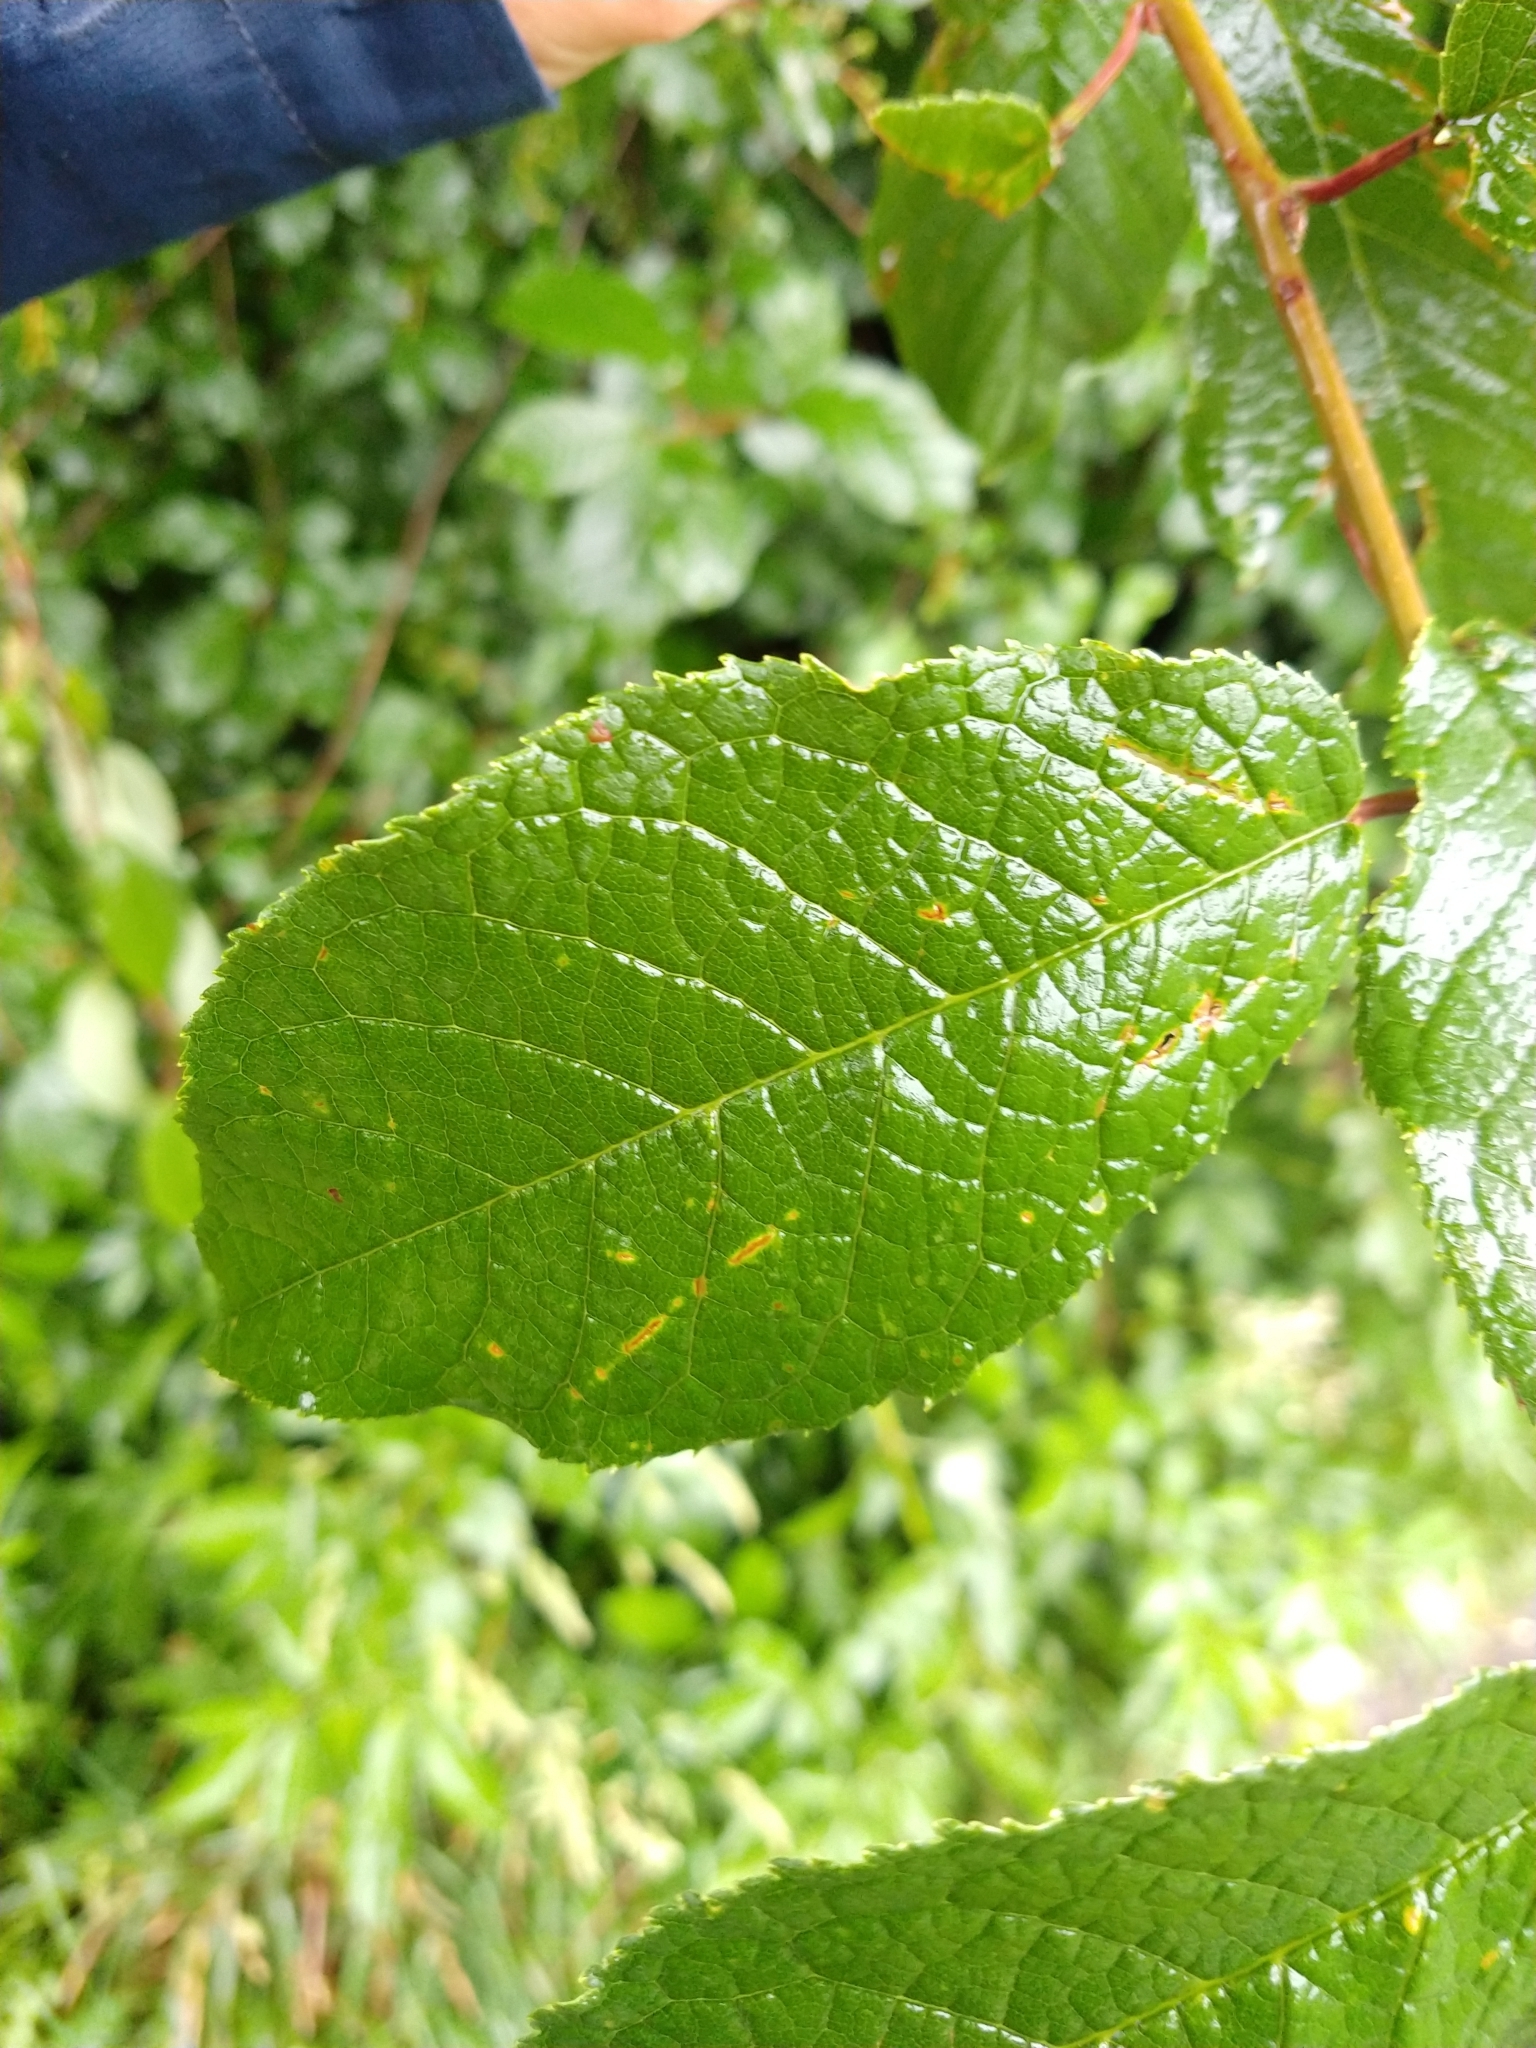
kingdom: Plantae
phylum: Tracheophyta
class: Magnoliopsida
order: Rosales
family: Rosaceae
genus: Prunus
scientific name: Prunus padus
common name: Bird cherry
